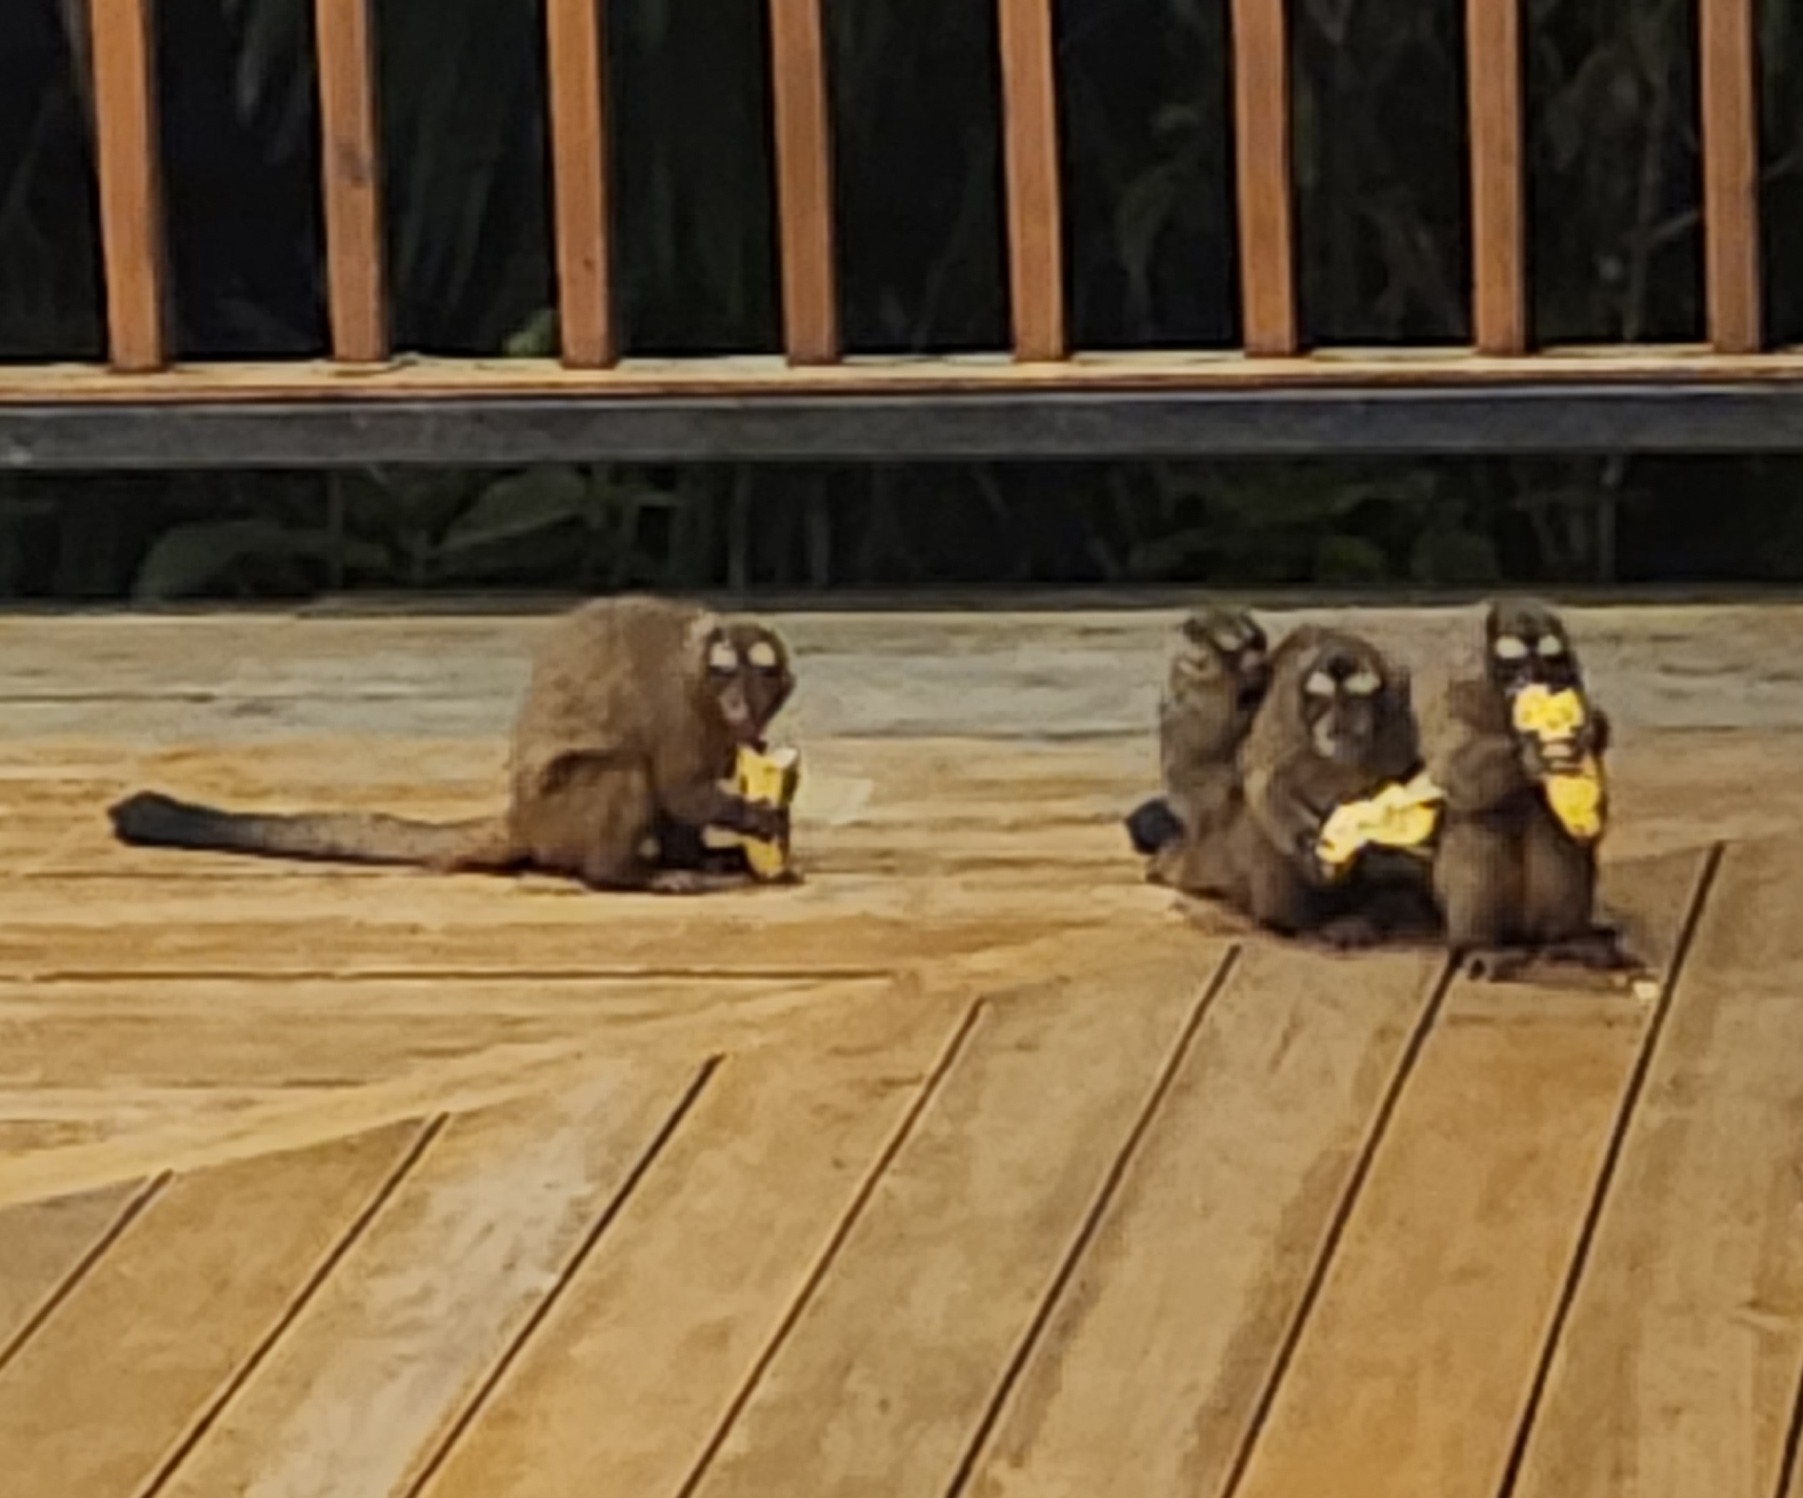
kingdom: Animalia
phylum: Chordata
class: Mammalia
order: Primates
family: Aotidae
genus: Aotus
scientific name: Aotus zonalis
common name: Panamanian night monkey
